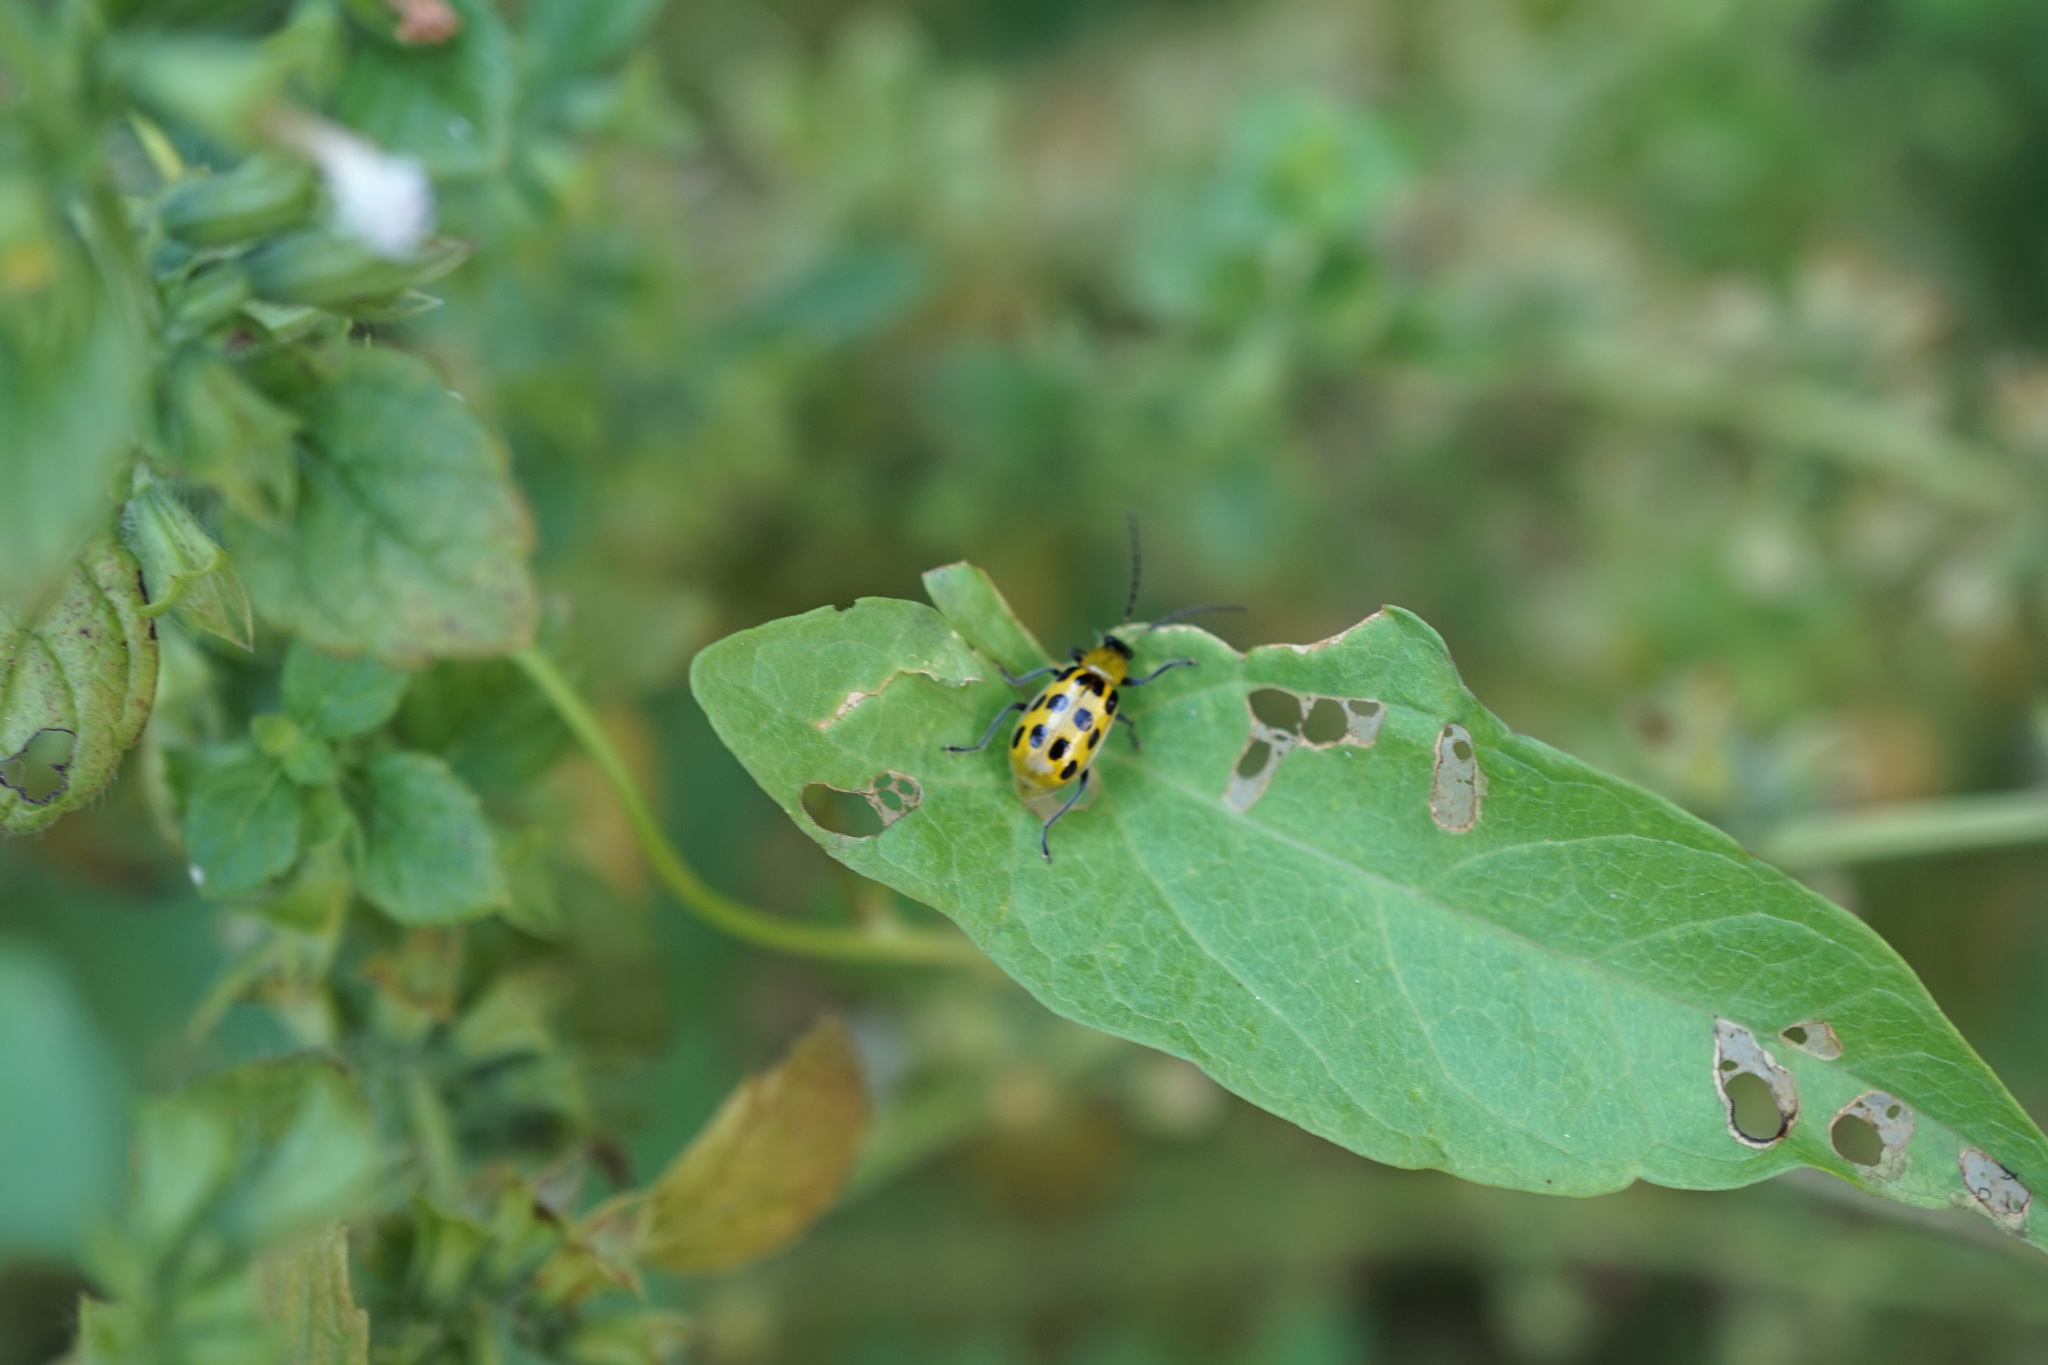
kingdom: Animalia
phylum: Arthropoda
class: Insecta
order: Coleoptera
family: Chrysomelidae
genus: Diabrotica
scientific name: Diabrotica undecimpunctata
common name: Spotted cucumber beetle
